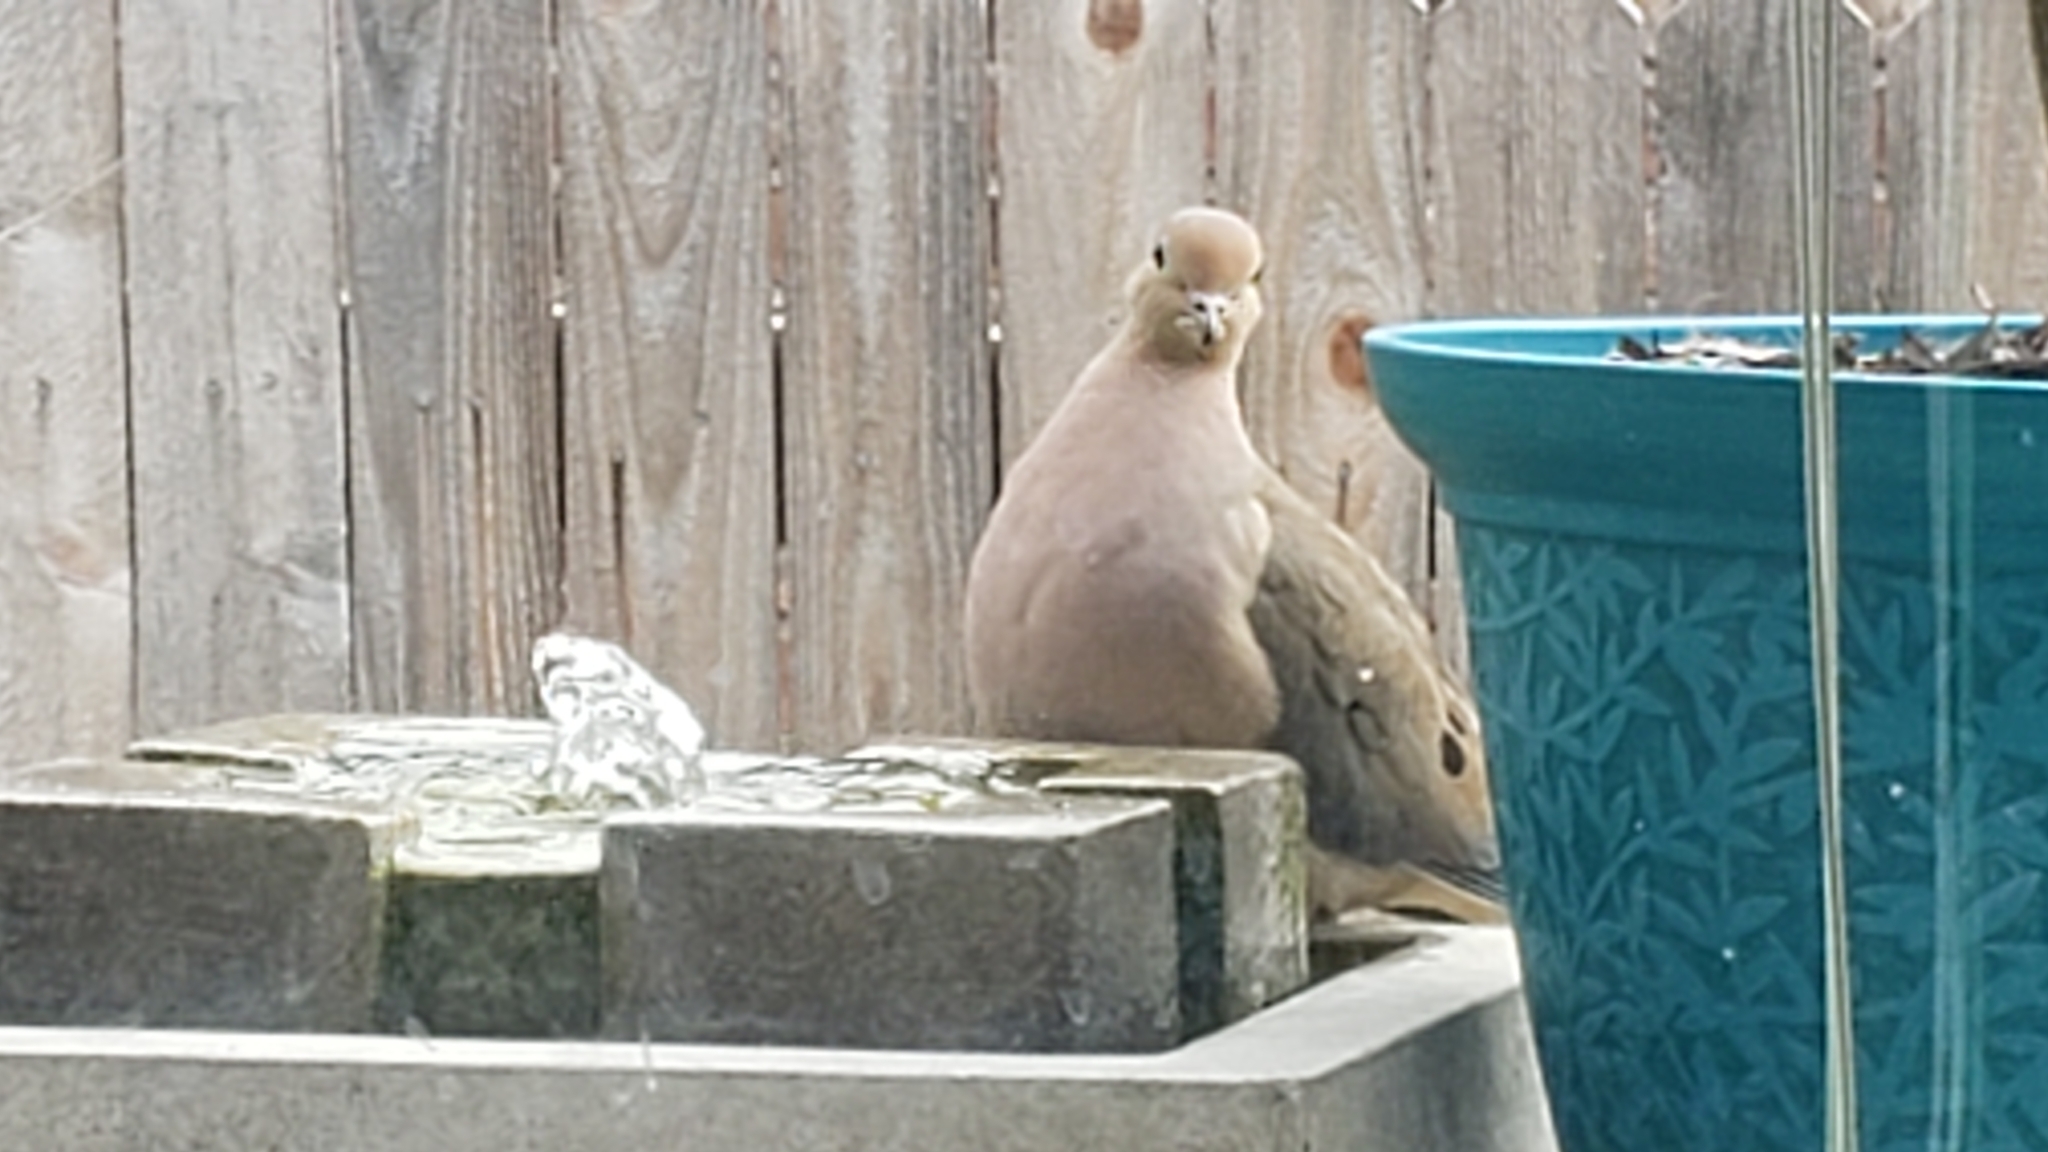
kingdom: Animalia
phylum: Chordata
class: Aves
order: Columbiformes
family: Columbidae
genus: Zenaida
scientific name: Zenaida macroura
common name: Mourning dove
